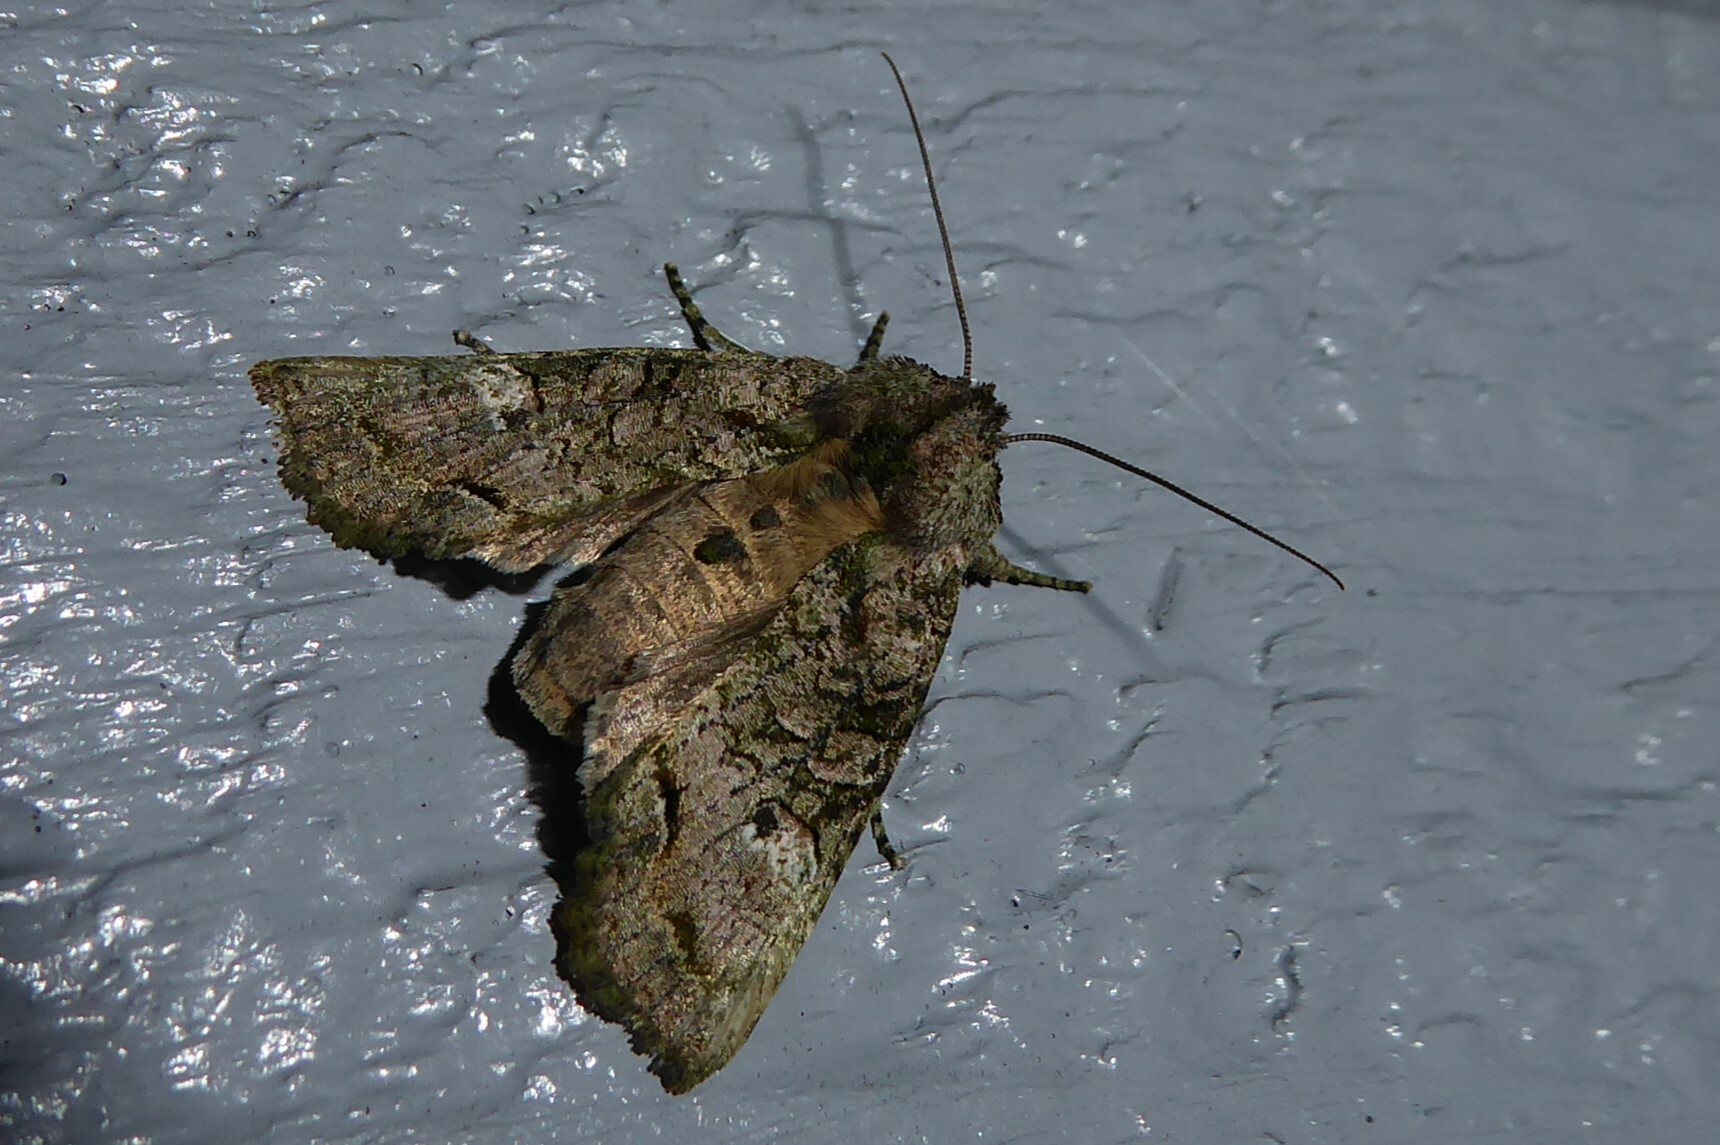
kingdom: Animalia
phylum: Arthropoda
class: Insecta
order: Lepidoptera
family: Noctuidae
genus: Meterana
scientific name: Meterana levis
